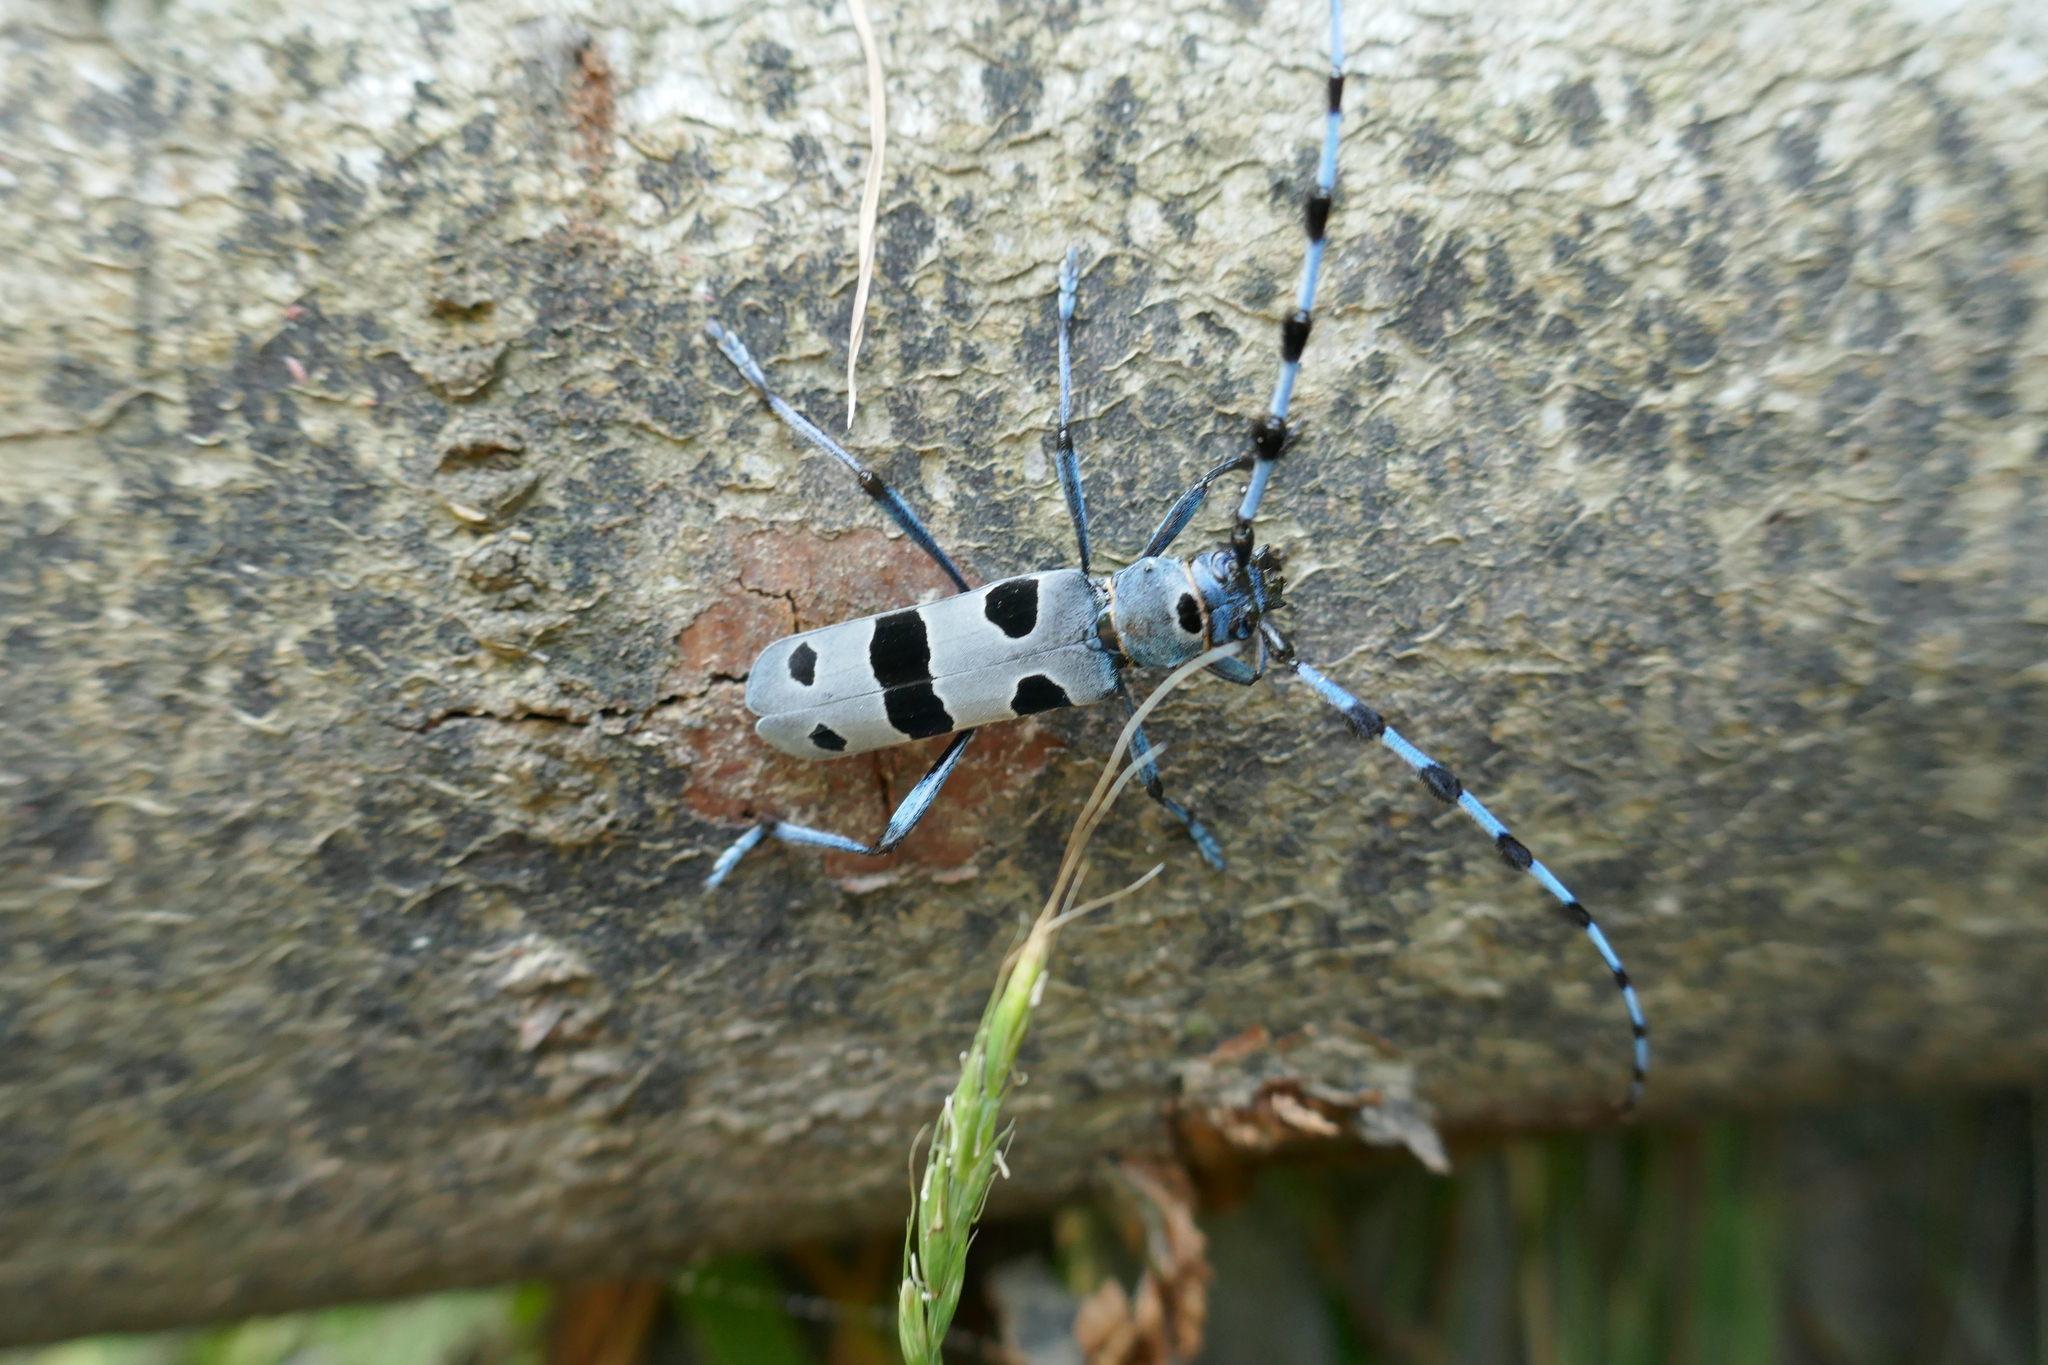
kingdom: Animalia
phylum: Arthropoda
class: Insecta
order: Coleoptera
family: Cerambycidae
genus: Rosalia
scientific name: Rosalia alpina
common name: Rosalia longicorn
